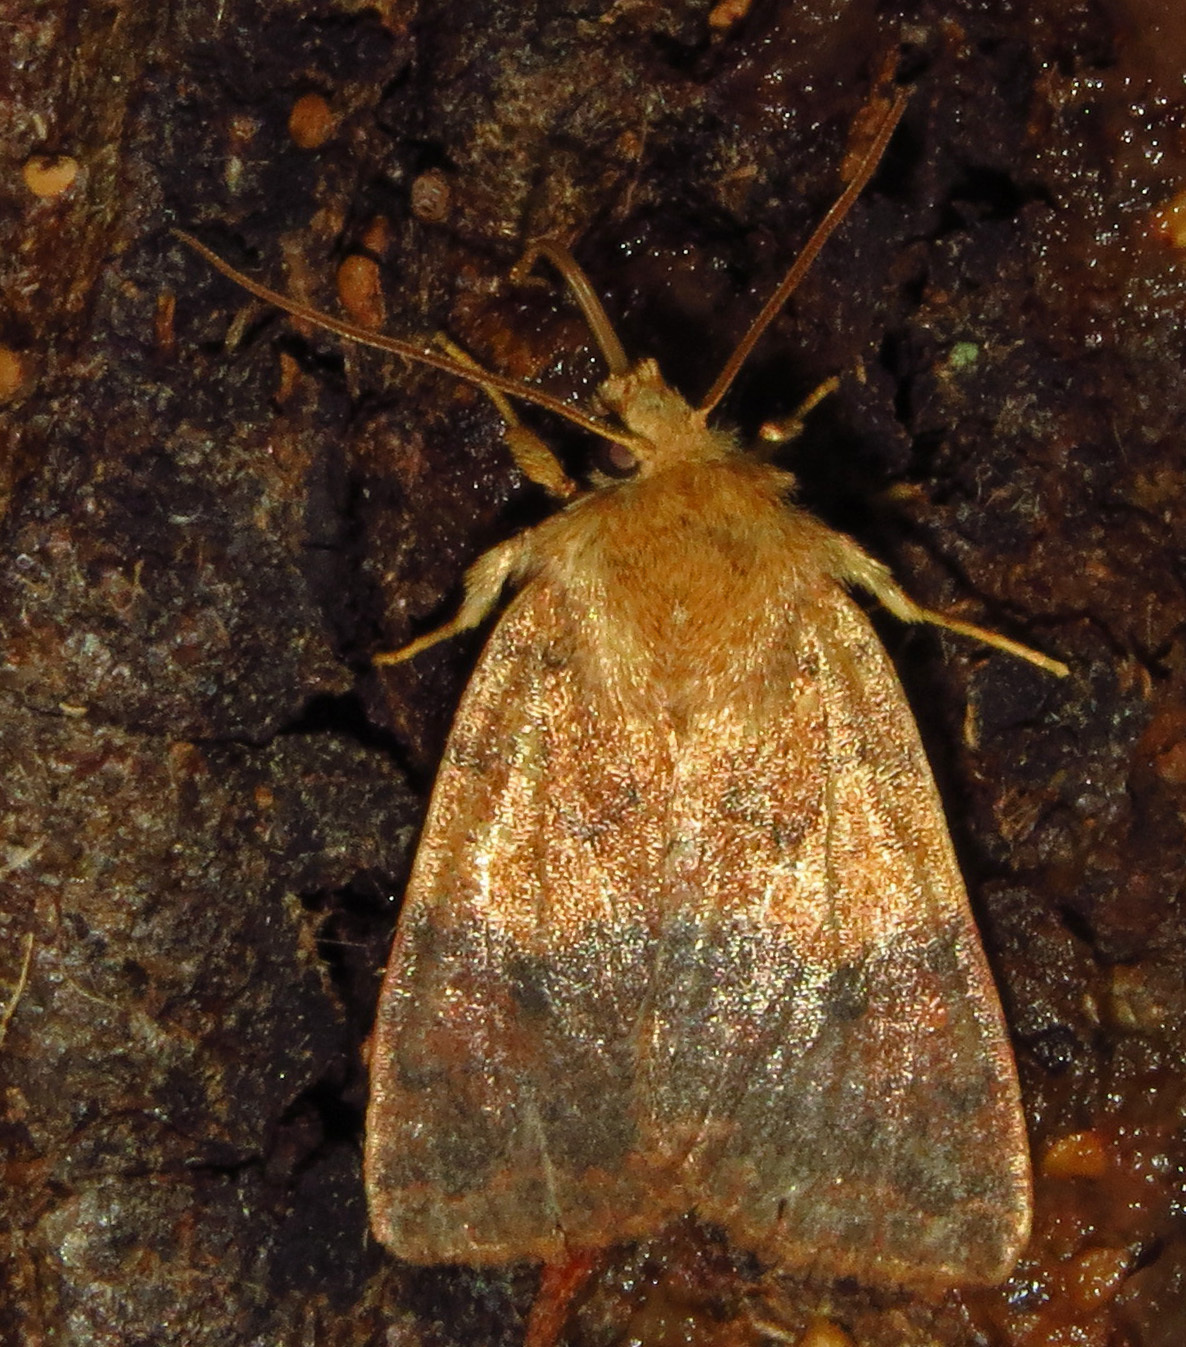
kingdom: Animalia
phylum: Arthropoda
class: Insecta
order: Lepidoptera
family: Noctuidae
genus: Agrochola
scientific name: Agrochola bicolorago
